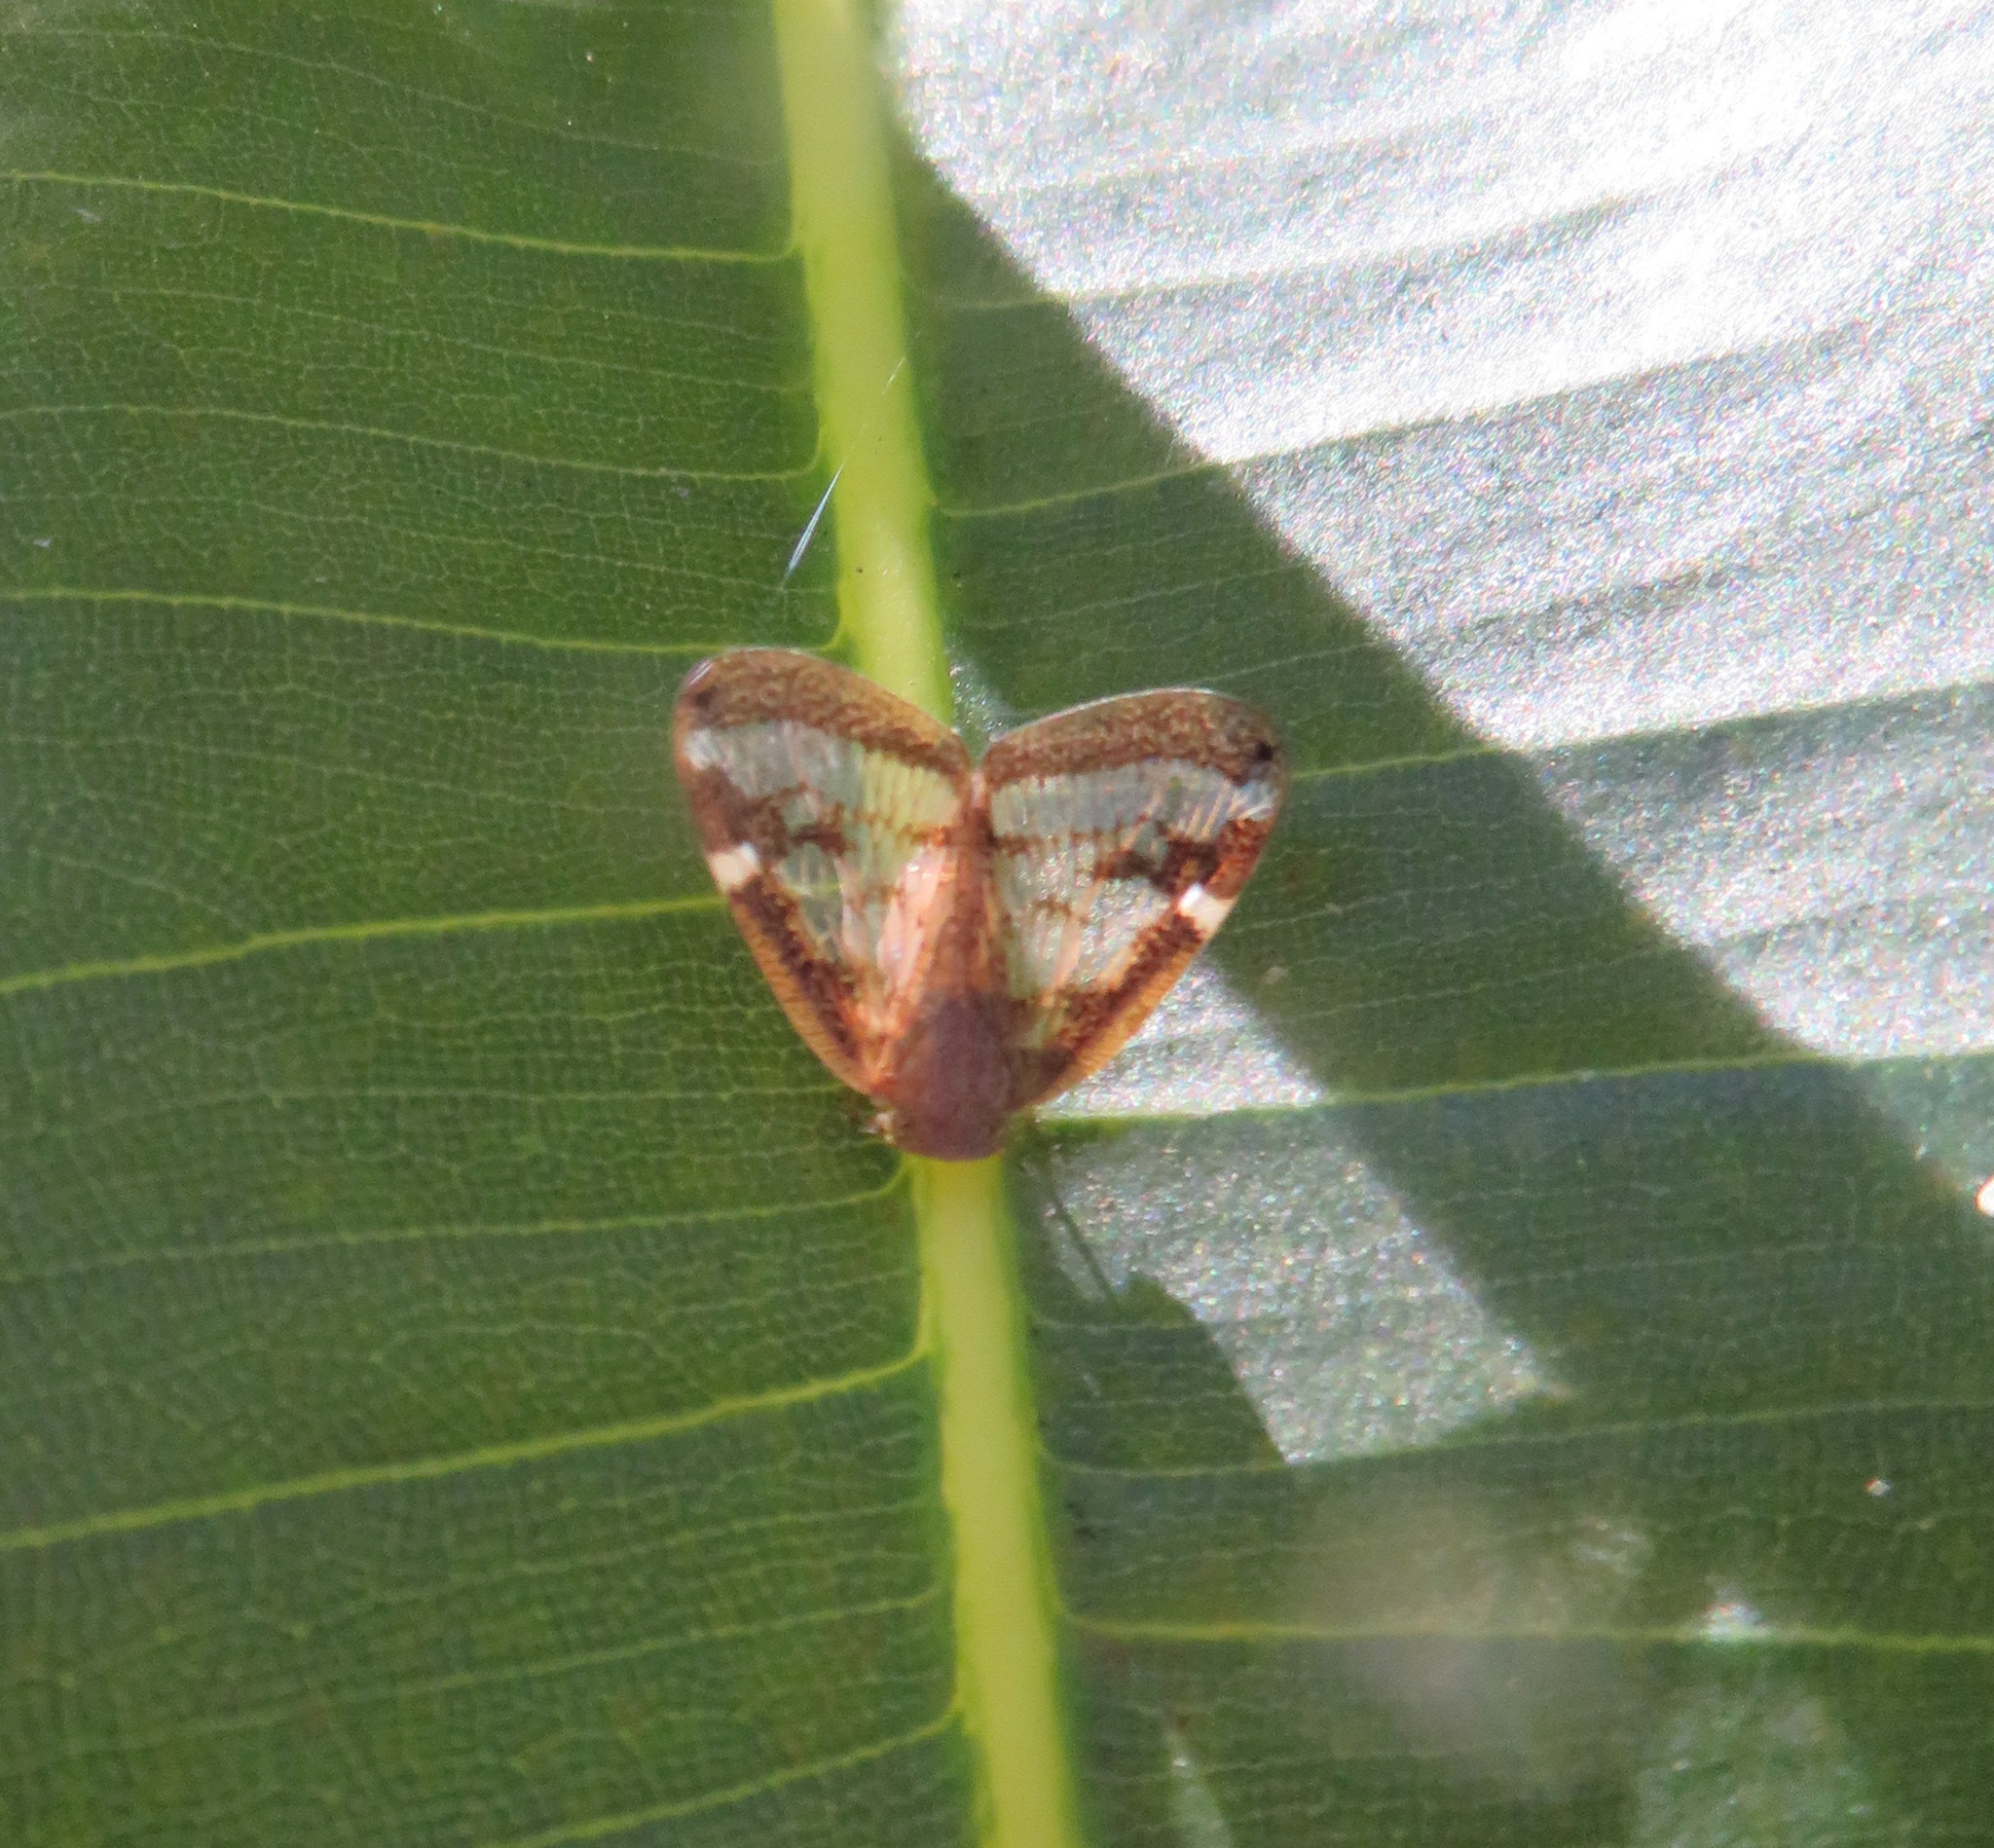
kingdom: Animalia
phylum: Arthropoda
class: Insecta
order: Hemiptera
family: Ricaniidae
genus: Scolypopa
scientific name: Scolypopa australis
